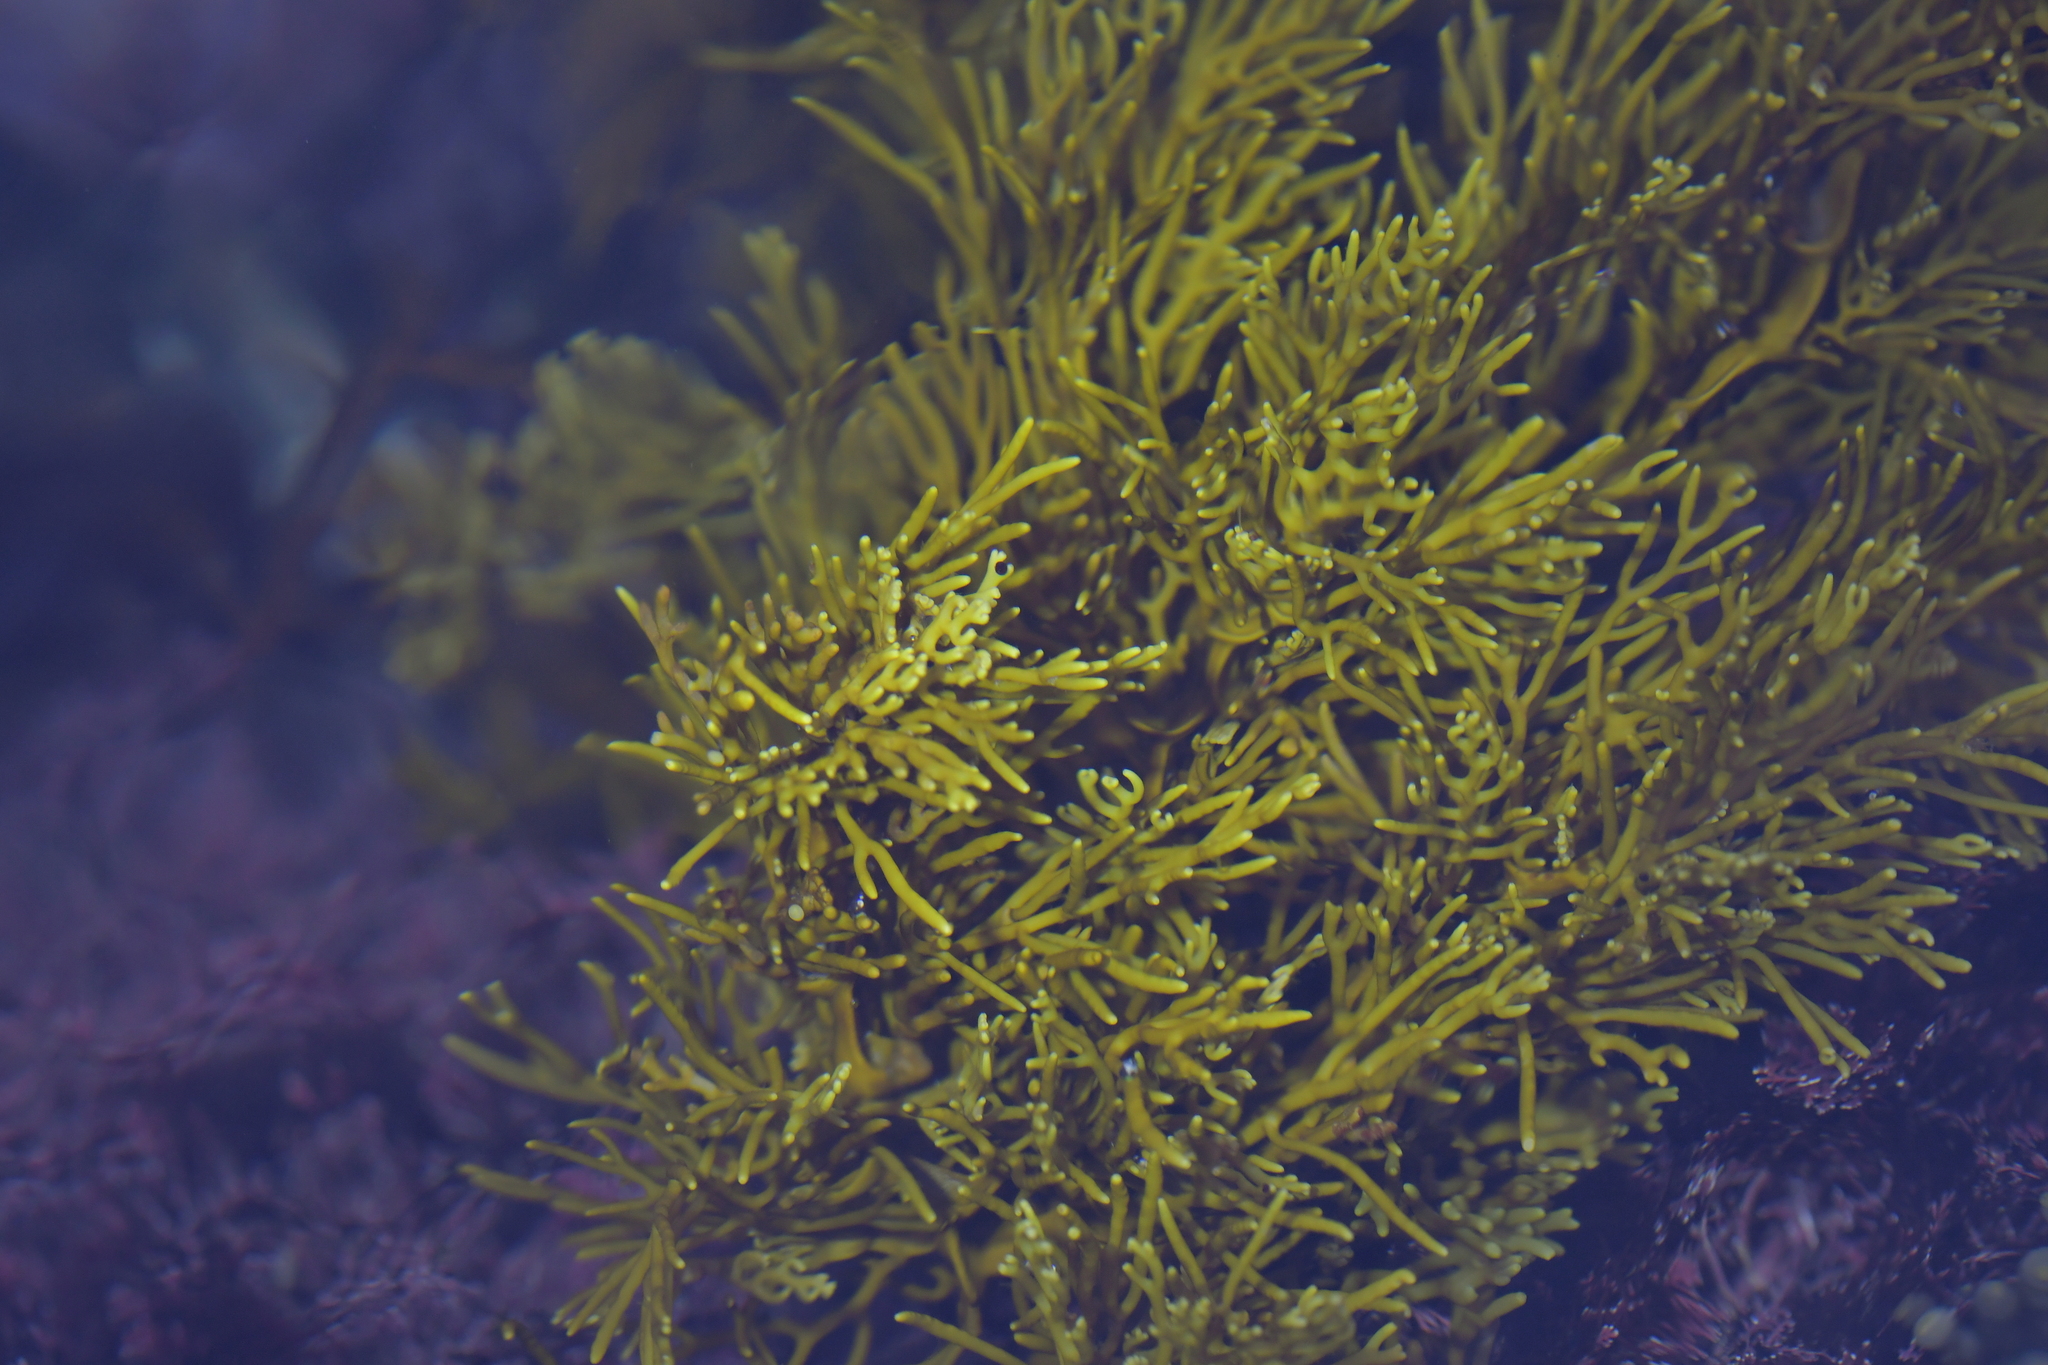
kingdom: Chromista
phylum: Ochrophyta
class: Phaeophyceae
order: Fucales
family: Sargassaceae
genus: Cystophora
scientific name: Cystophora retroflexa
